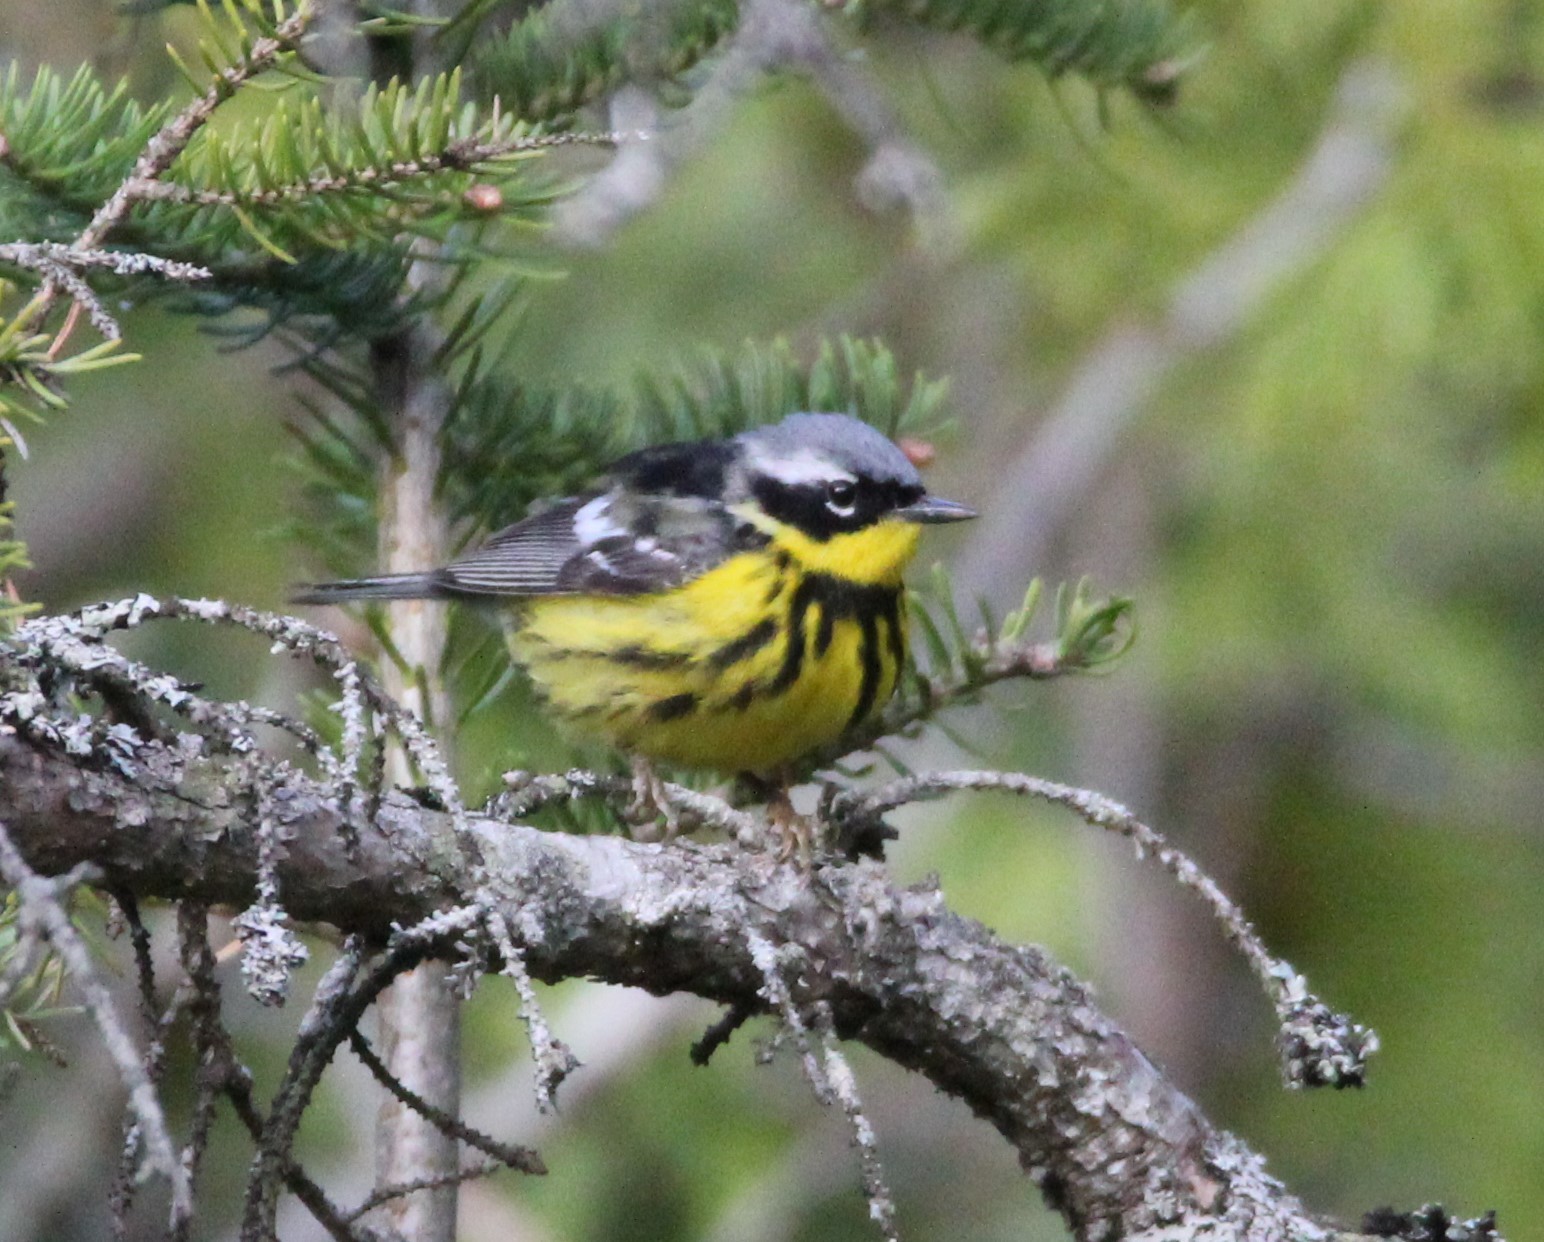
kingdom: Animalia
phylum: Chordata
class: Aves
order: Passeriformes
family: Parulidae
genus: Setophaga
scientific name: Setophaga magnolia
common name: Magnolia warbler
